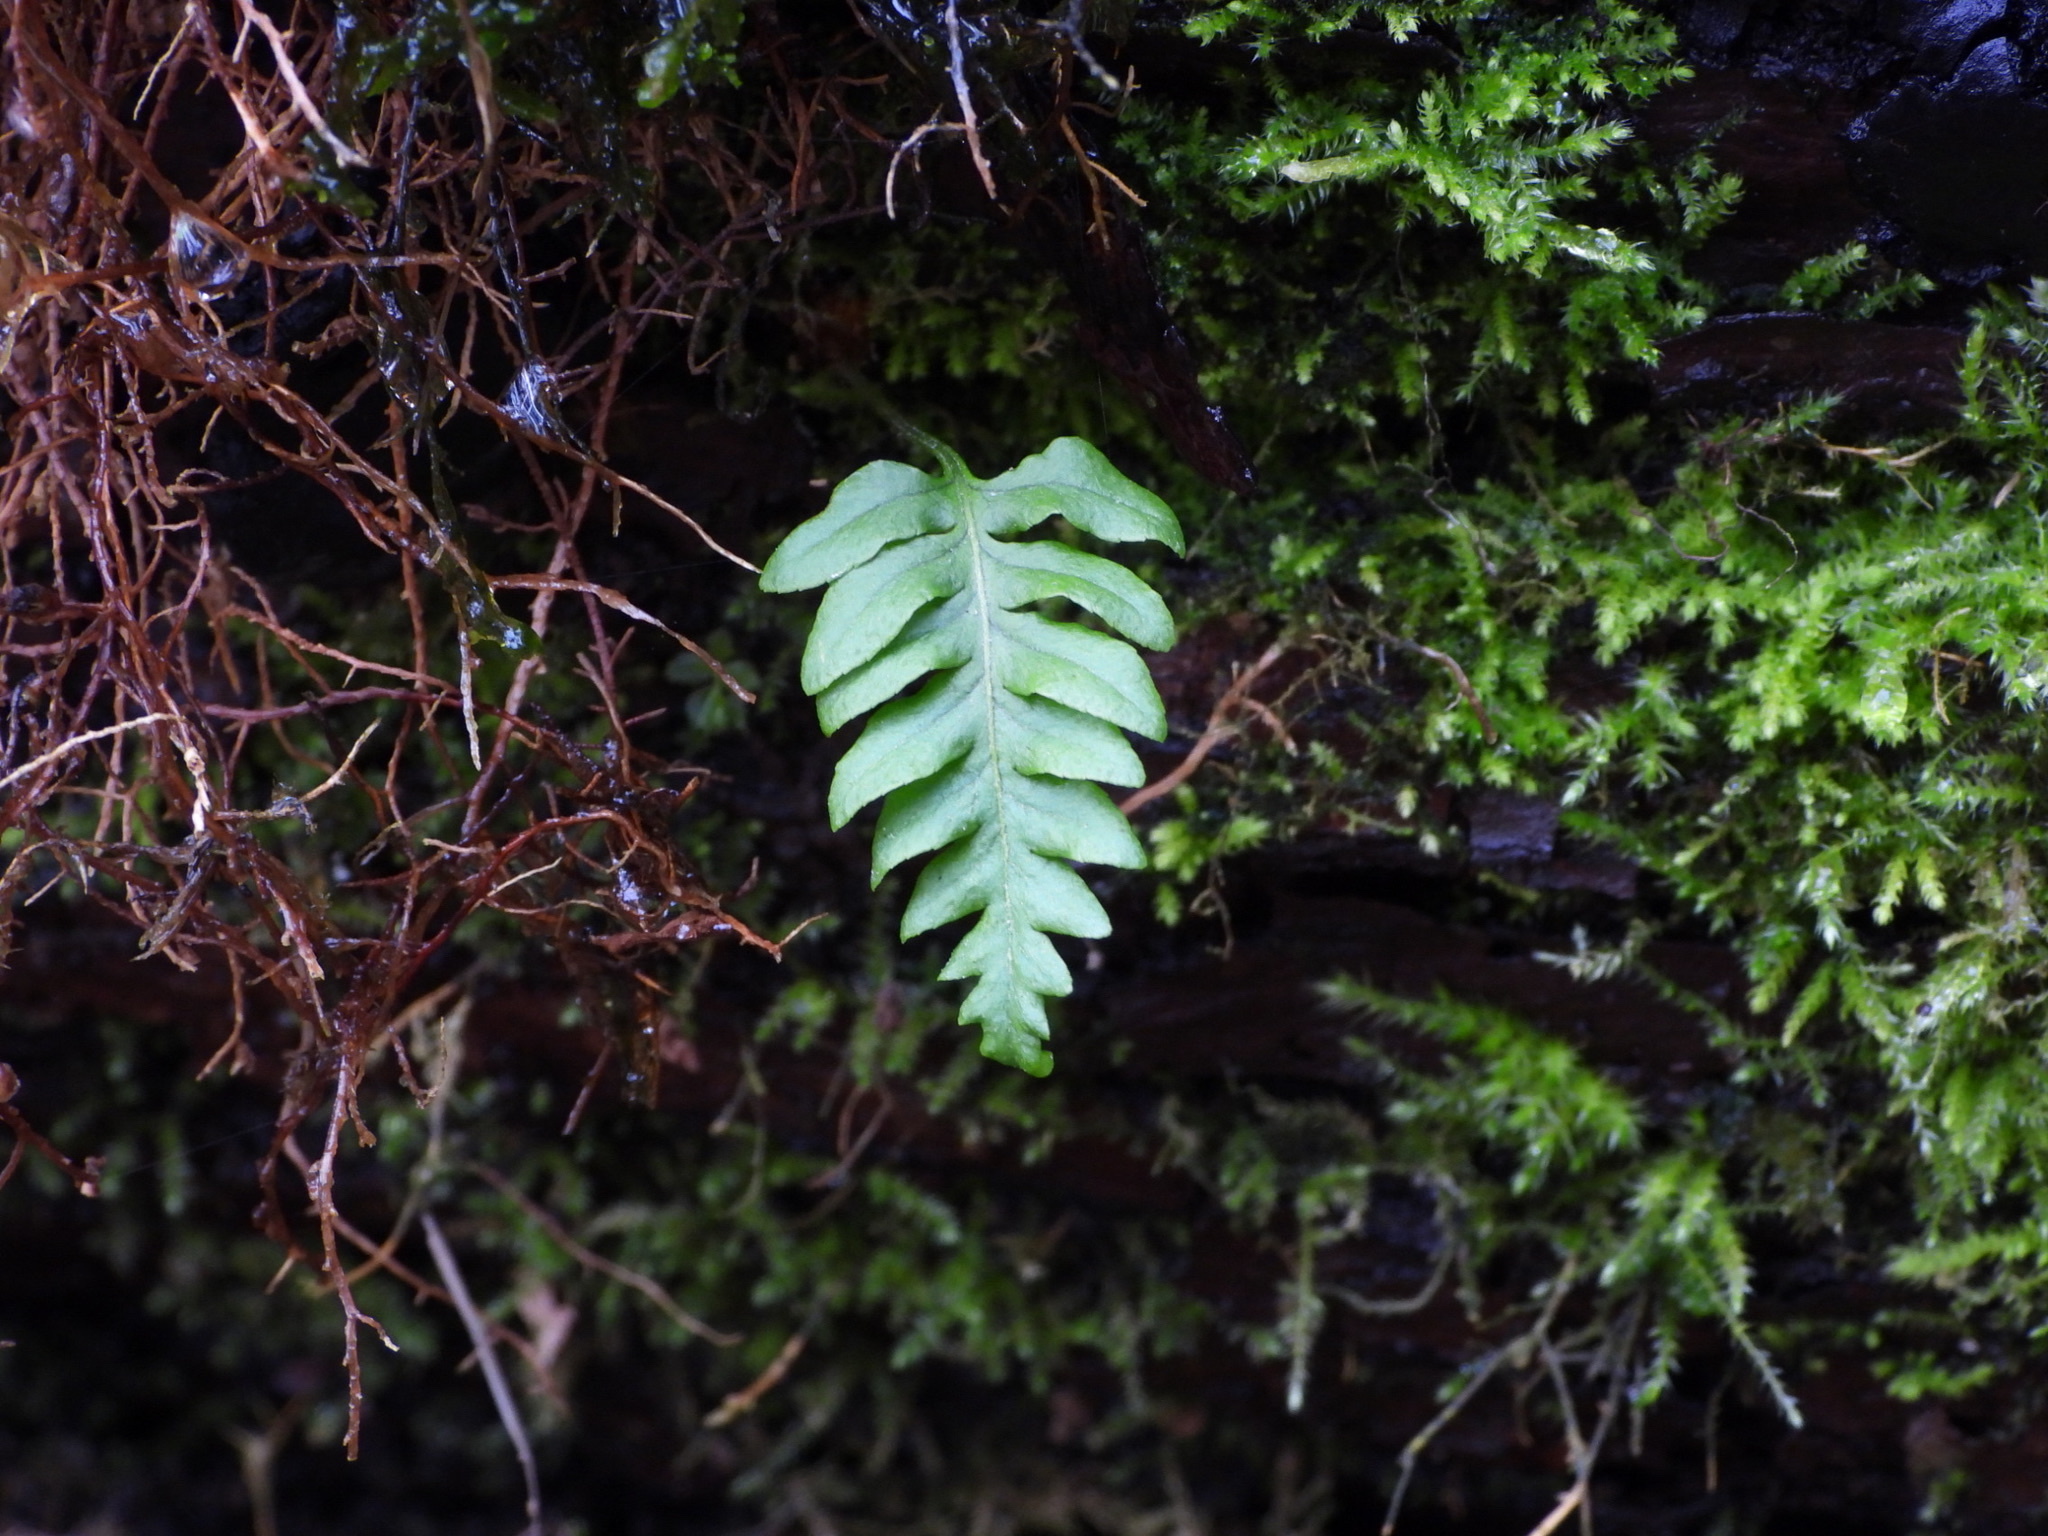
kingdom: Plantae
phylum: Tracheophyta
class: Polypodiopsida
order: Polypodiales
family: Polypodiaceae
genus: Polypodium
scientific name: Polypodium glycyrrhiza
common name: Licorice fern
